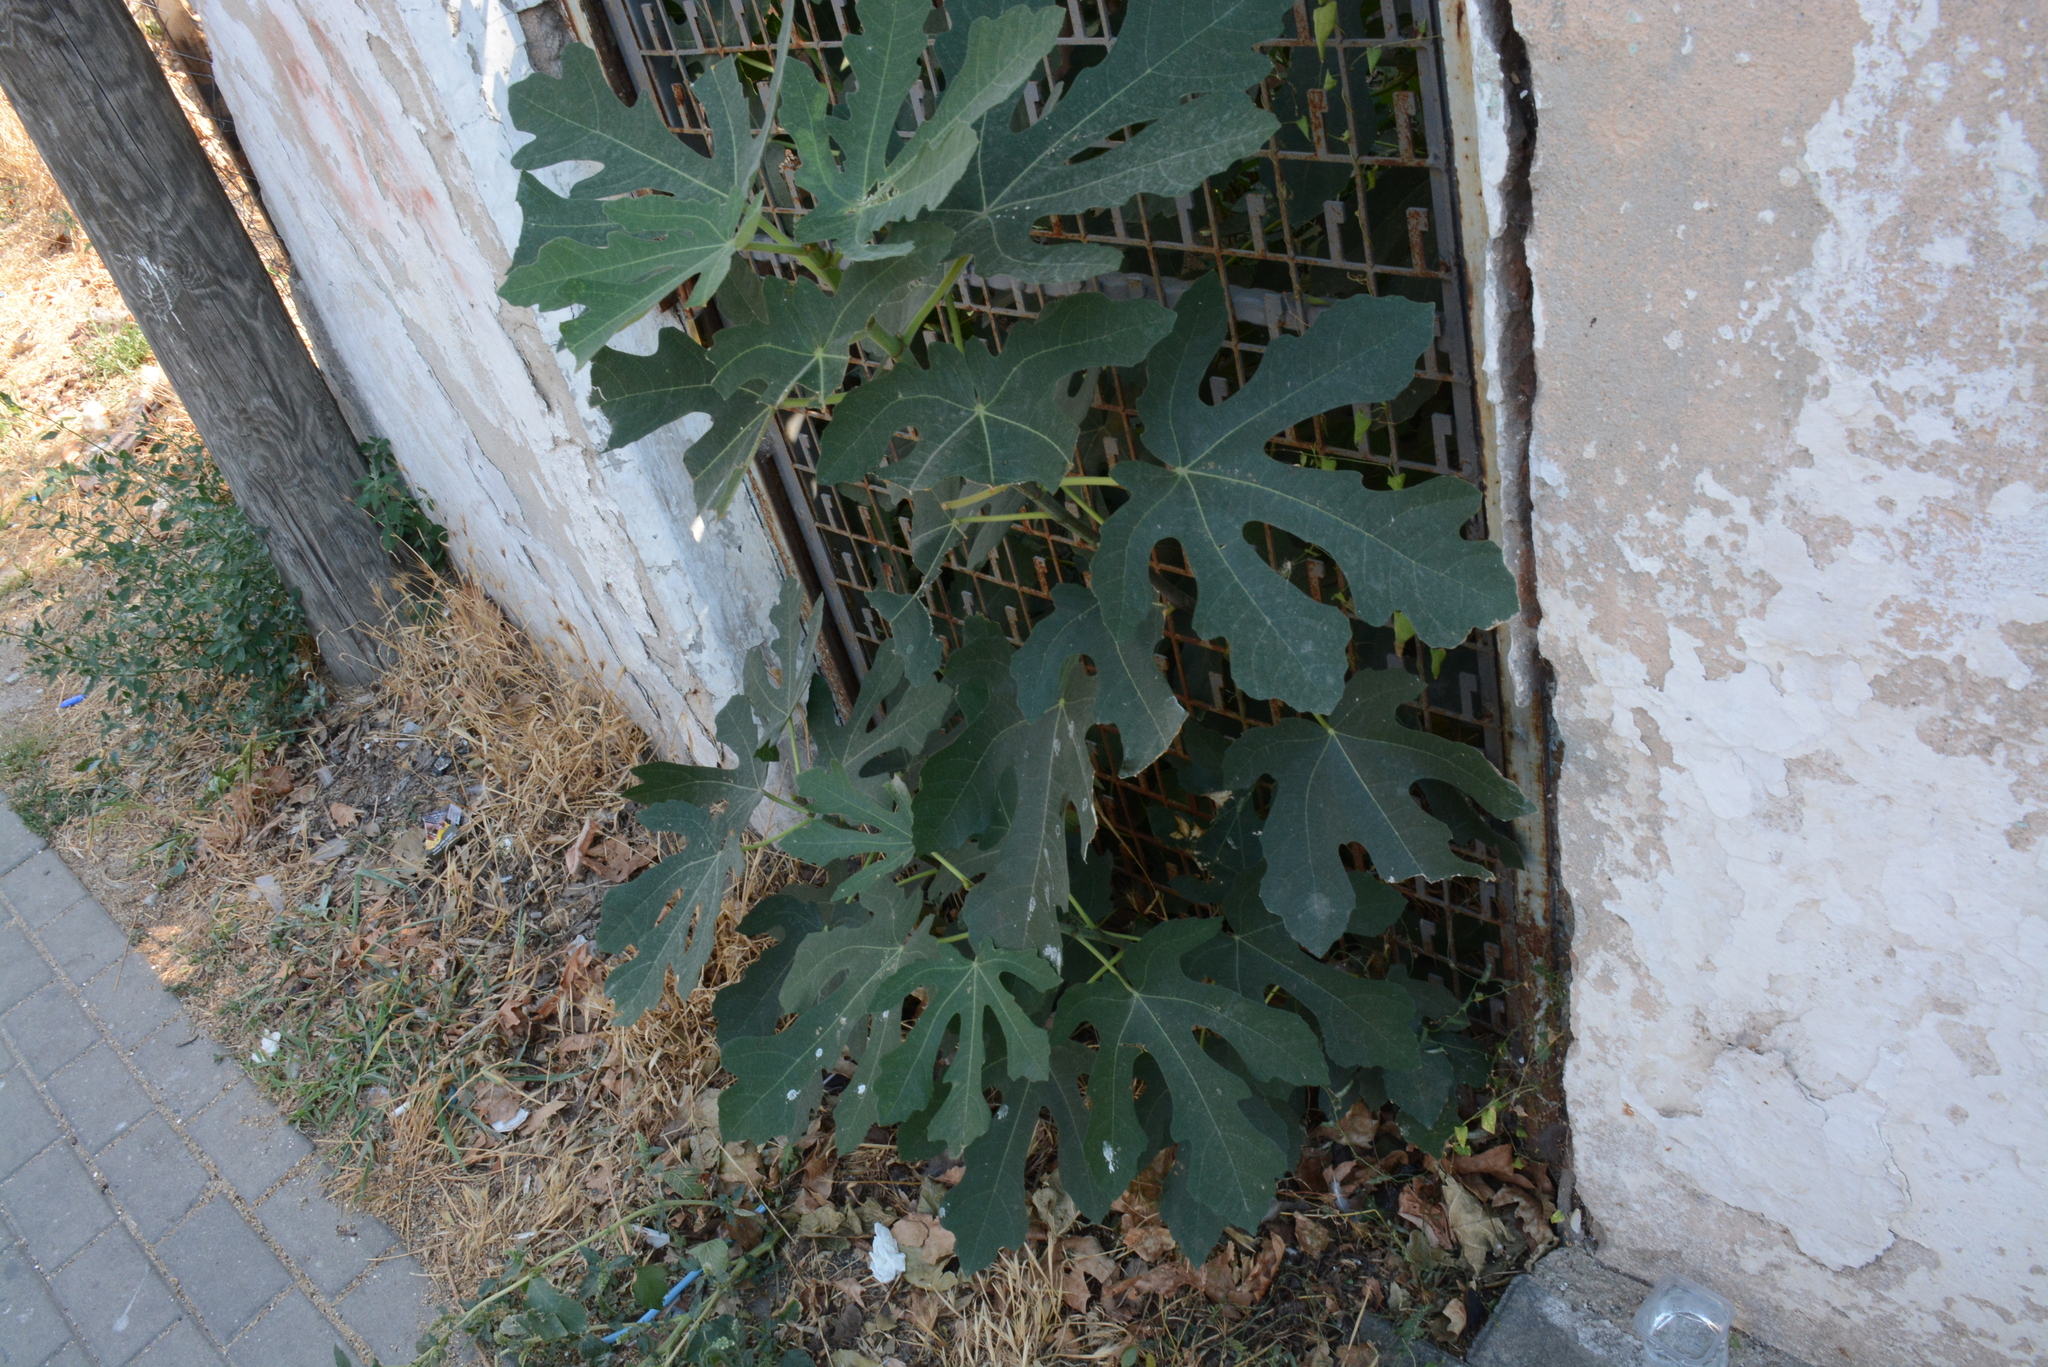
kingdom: Plantae
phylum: Tracheophyta
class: Magnoliopsida
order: Rosales
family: Moraceae
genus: Ficus
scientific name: Ficus carica
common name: Fig
